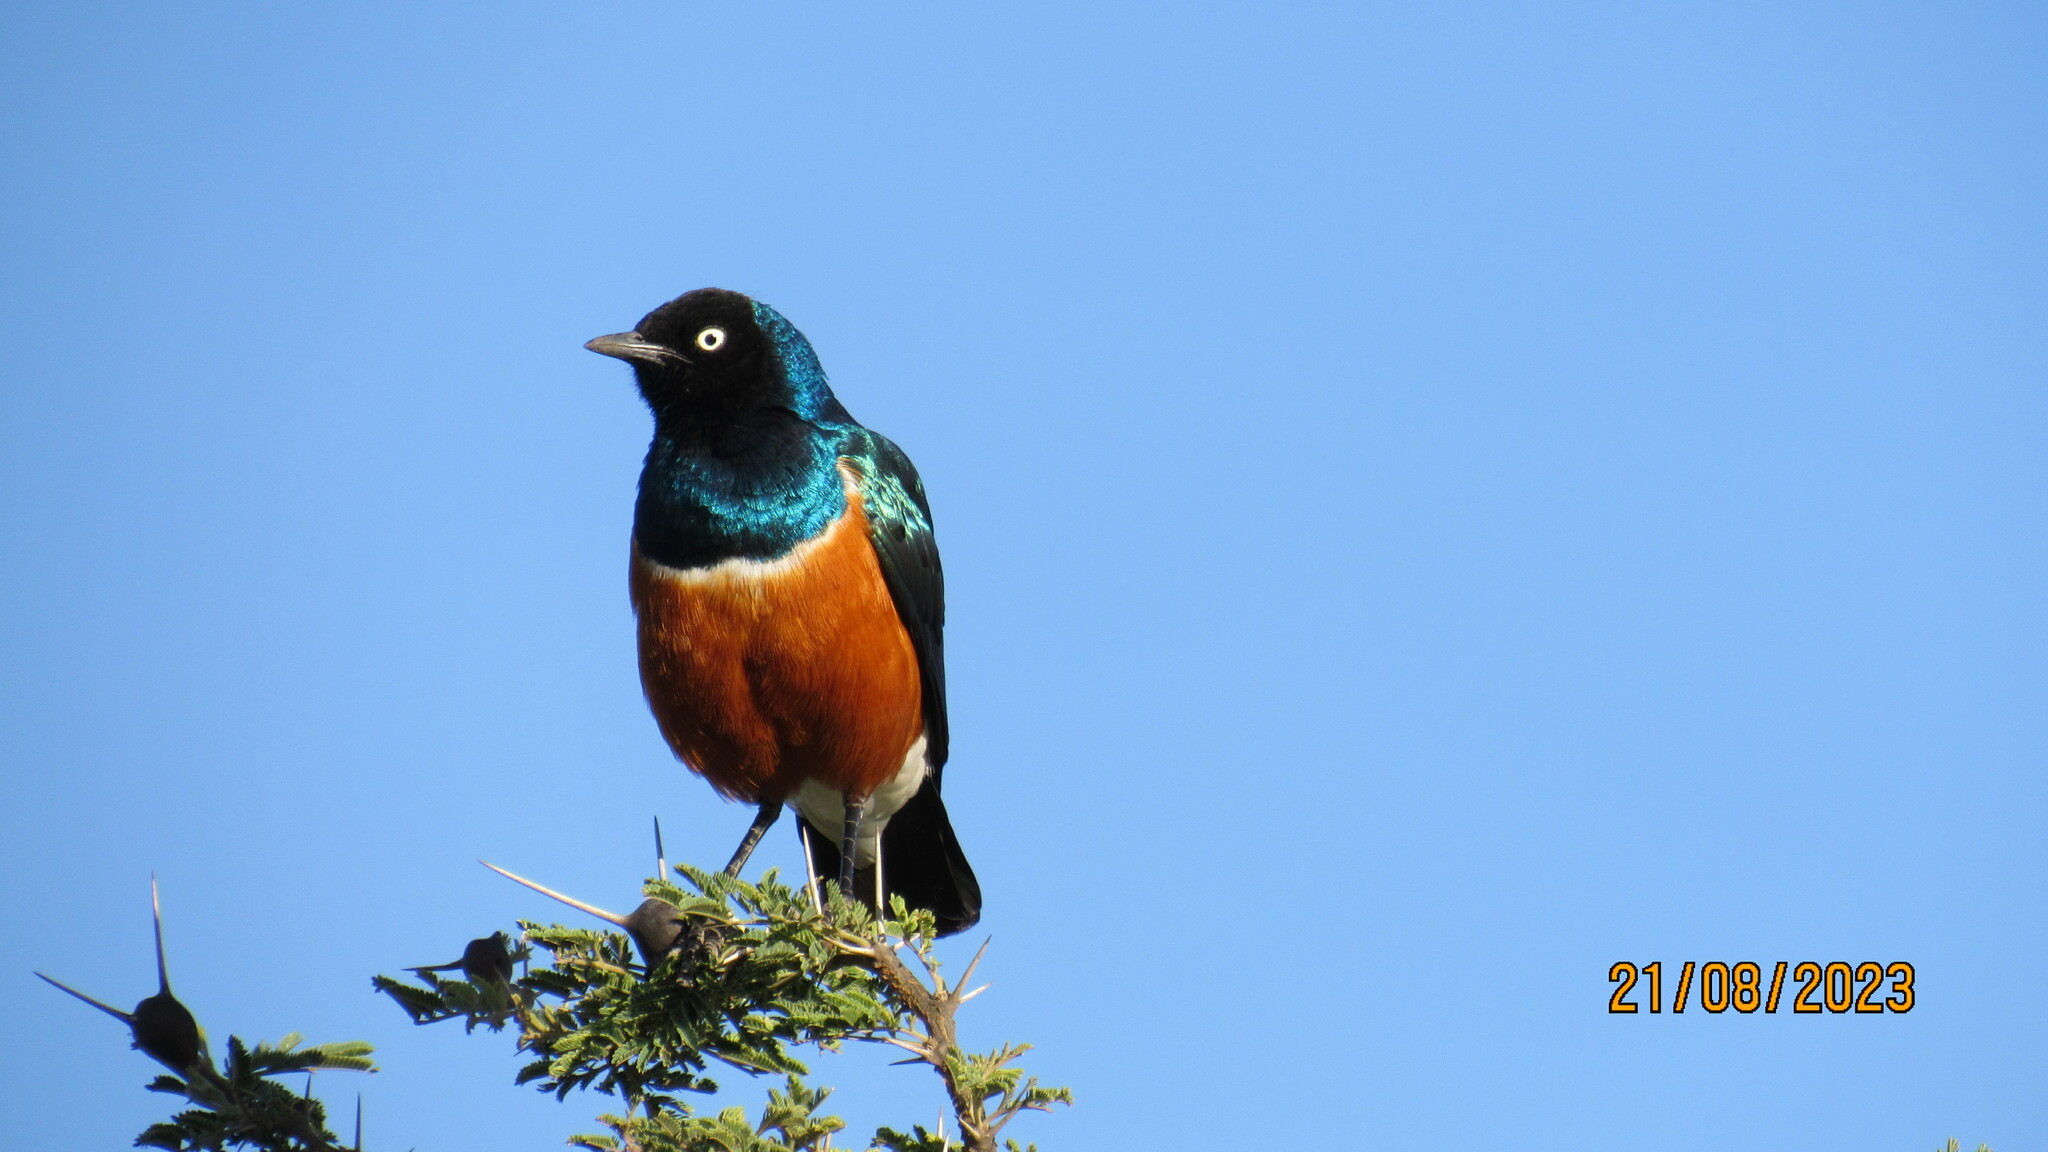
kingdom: Animalia
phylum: Chordata
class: Aves
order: Passeriformes
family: Sturnidae
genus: Lamprotornis
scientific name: Lamprotornis superbus
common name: Superb starling
